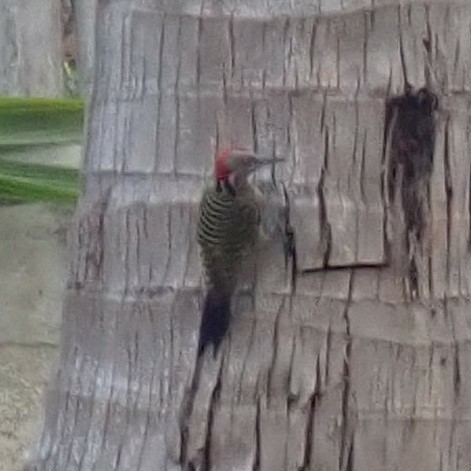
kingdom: Animalia
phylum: Chordata
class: Aves
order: Piciformes
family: Picidae
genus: Melanerpes
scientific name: Melanerpes striatus
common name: Hispaniolan woodpecker
